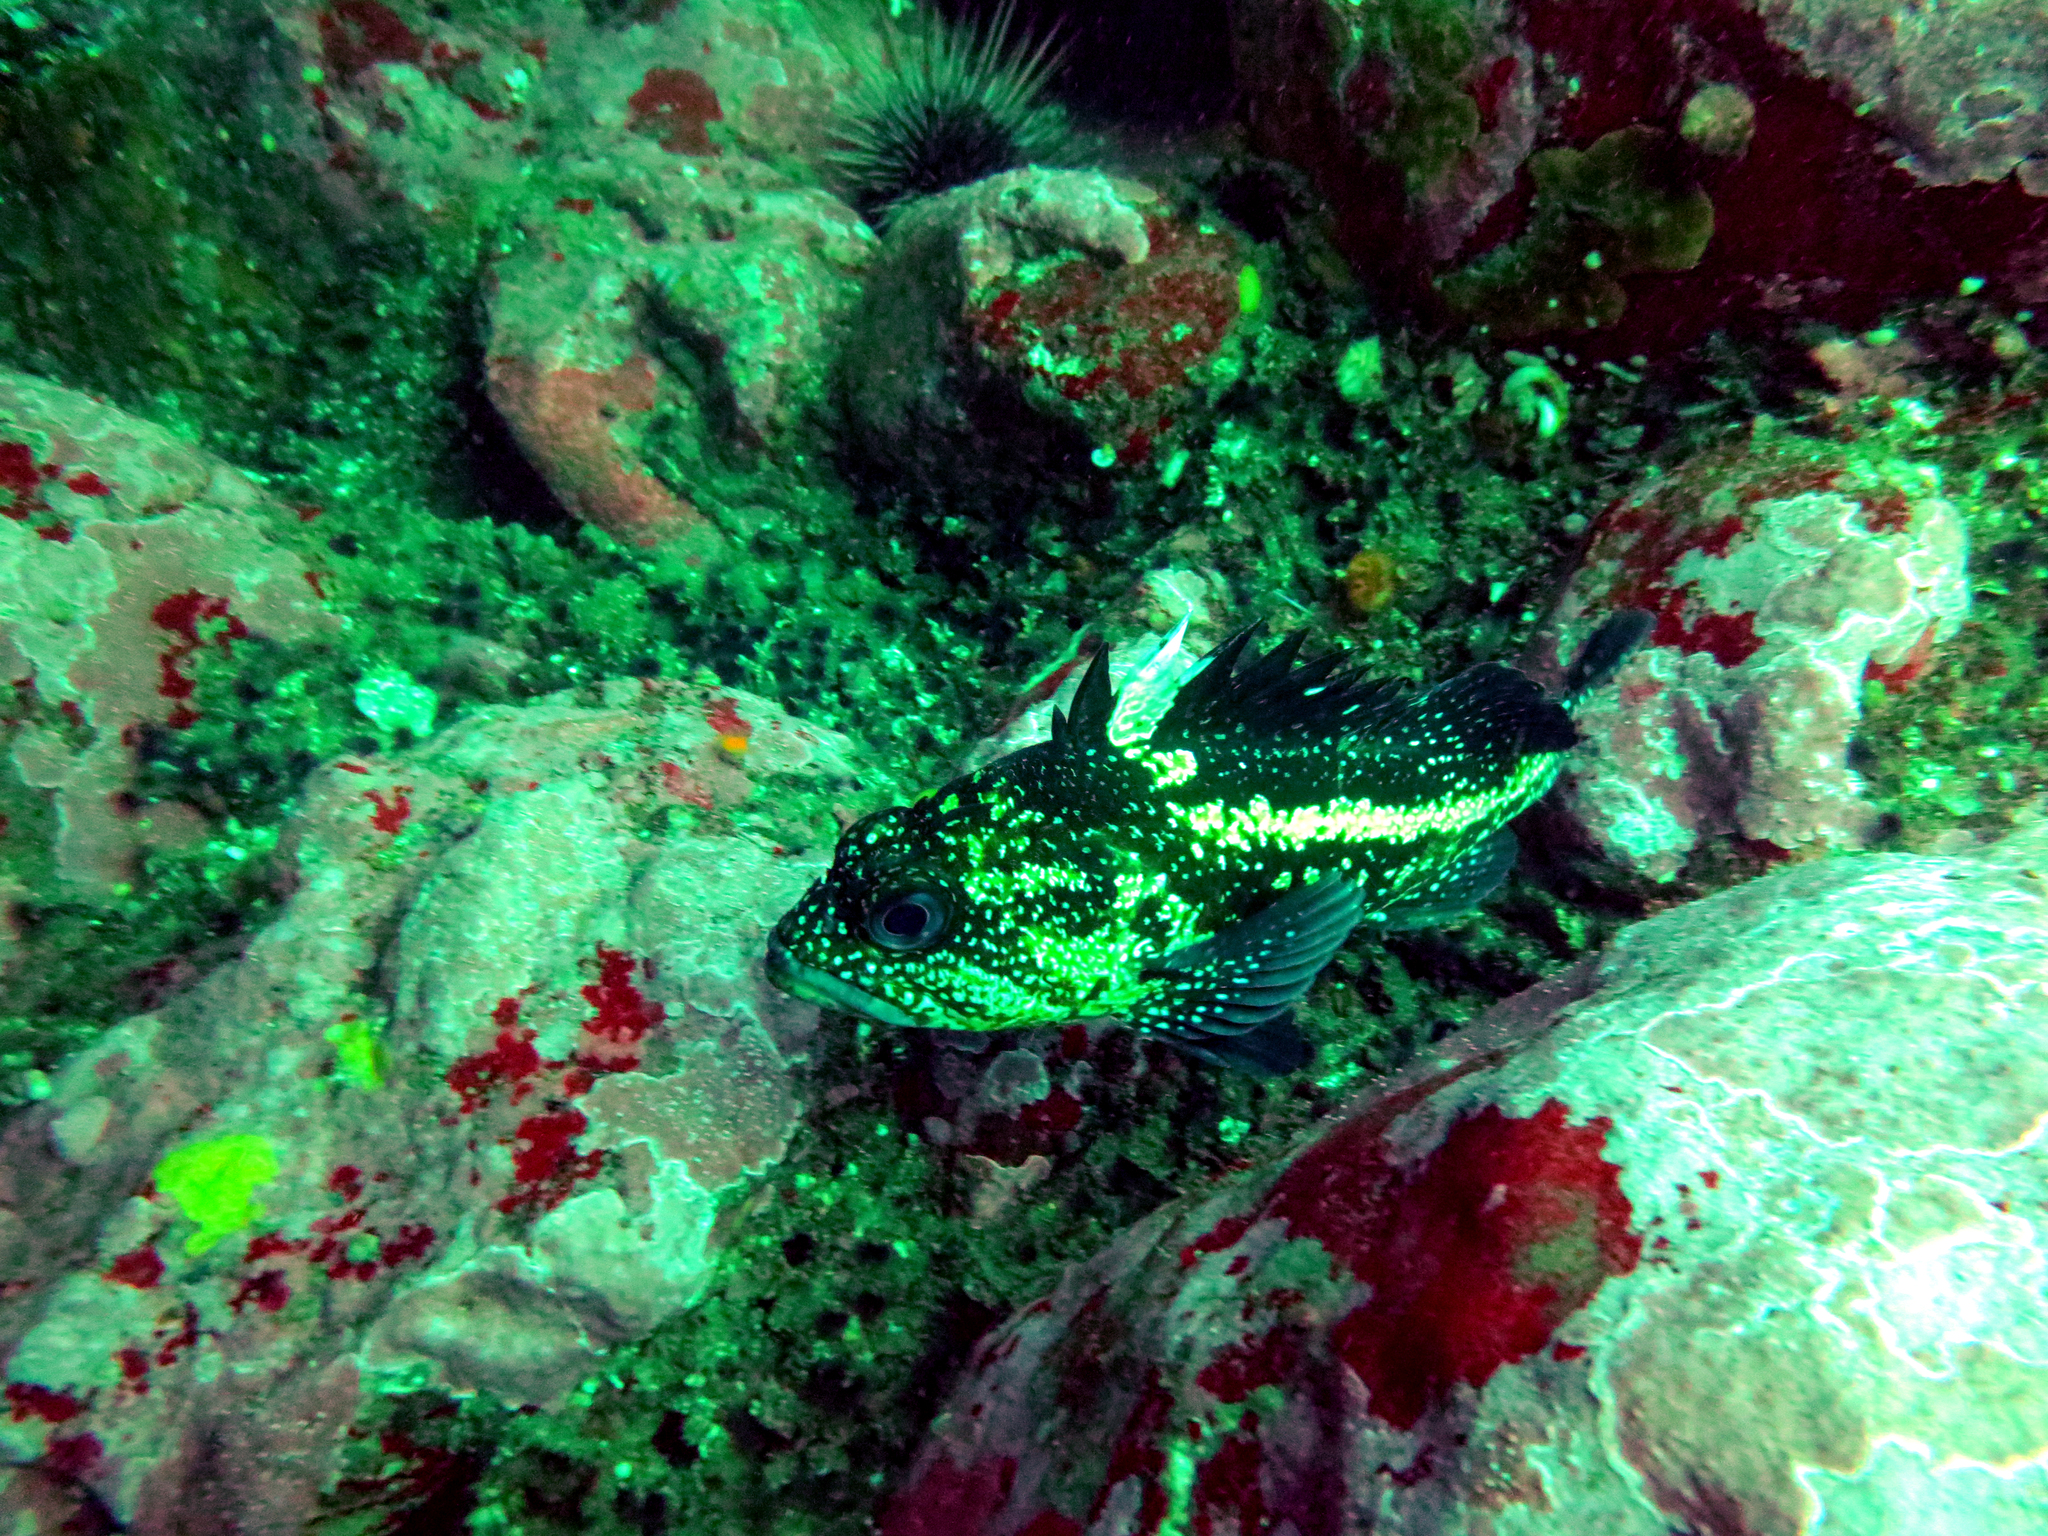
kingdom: Animalia
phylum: Chordata
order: Scorpaeniformes
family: Sebastidae
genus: Sebastes
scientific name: Sebastes nebulosus
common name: China rockfish
